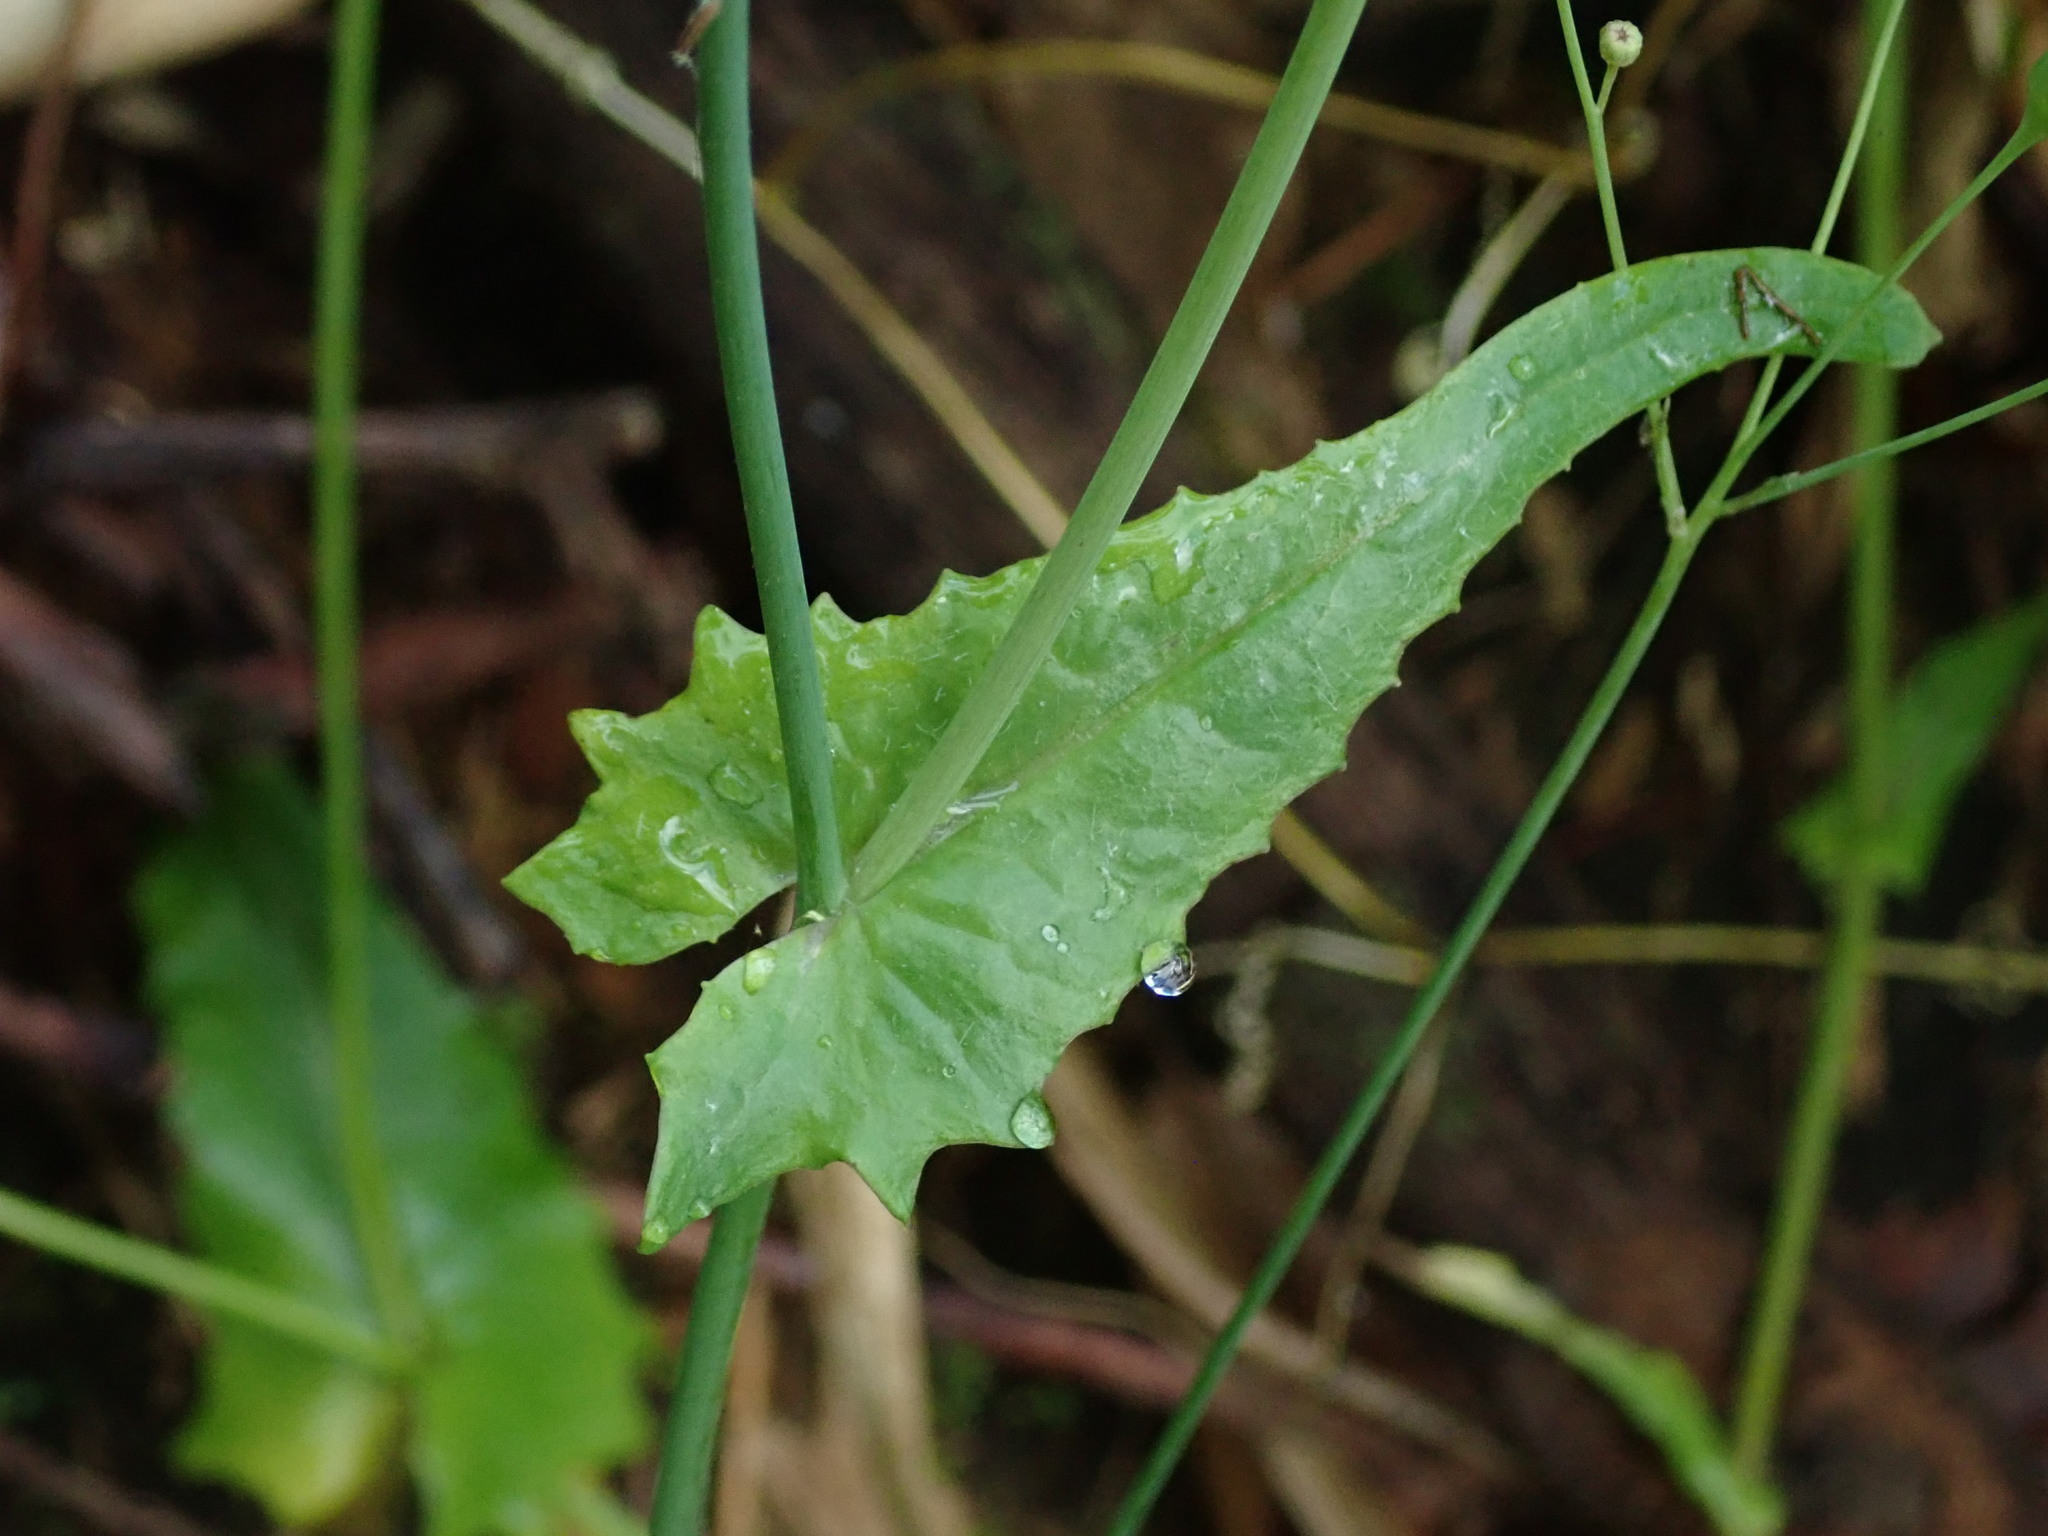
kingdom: Plantae
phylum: Tracheophyta
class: Magnoliopsida
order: Asterales
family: Asteraceae
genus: Emilia
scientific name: Emilia sonchifolia
